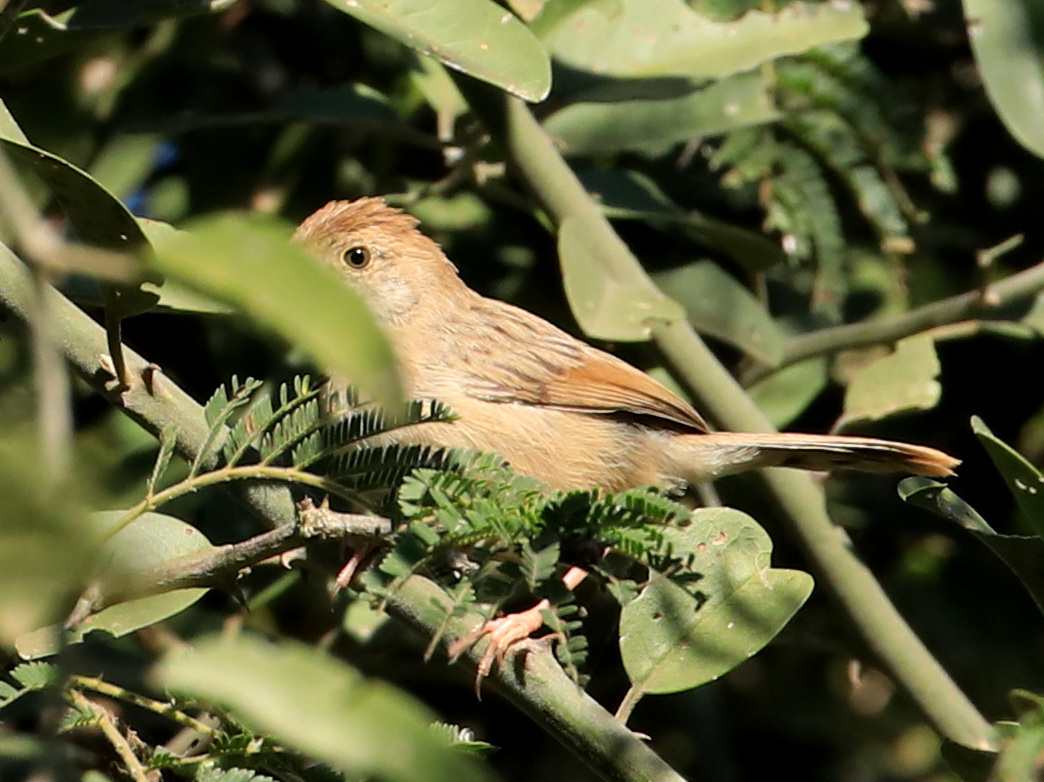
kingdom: Animalia
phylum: Chordata
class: Aves
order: Passeriformes
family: Cisticolidae
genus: Cisticola
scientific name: Cisticola chiniana
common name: Rattling cisticola
